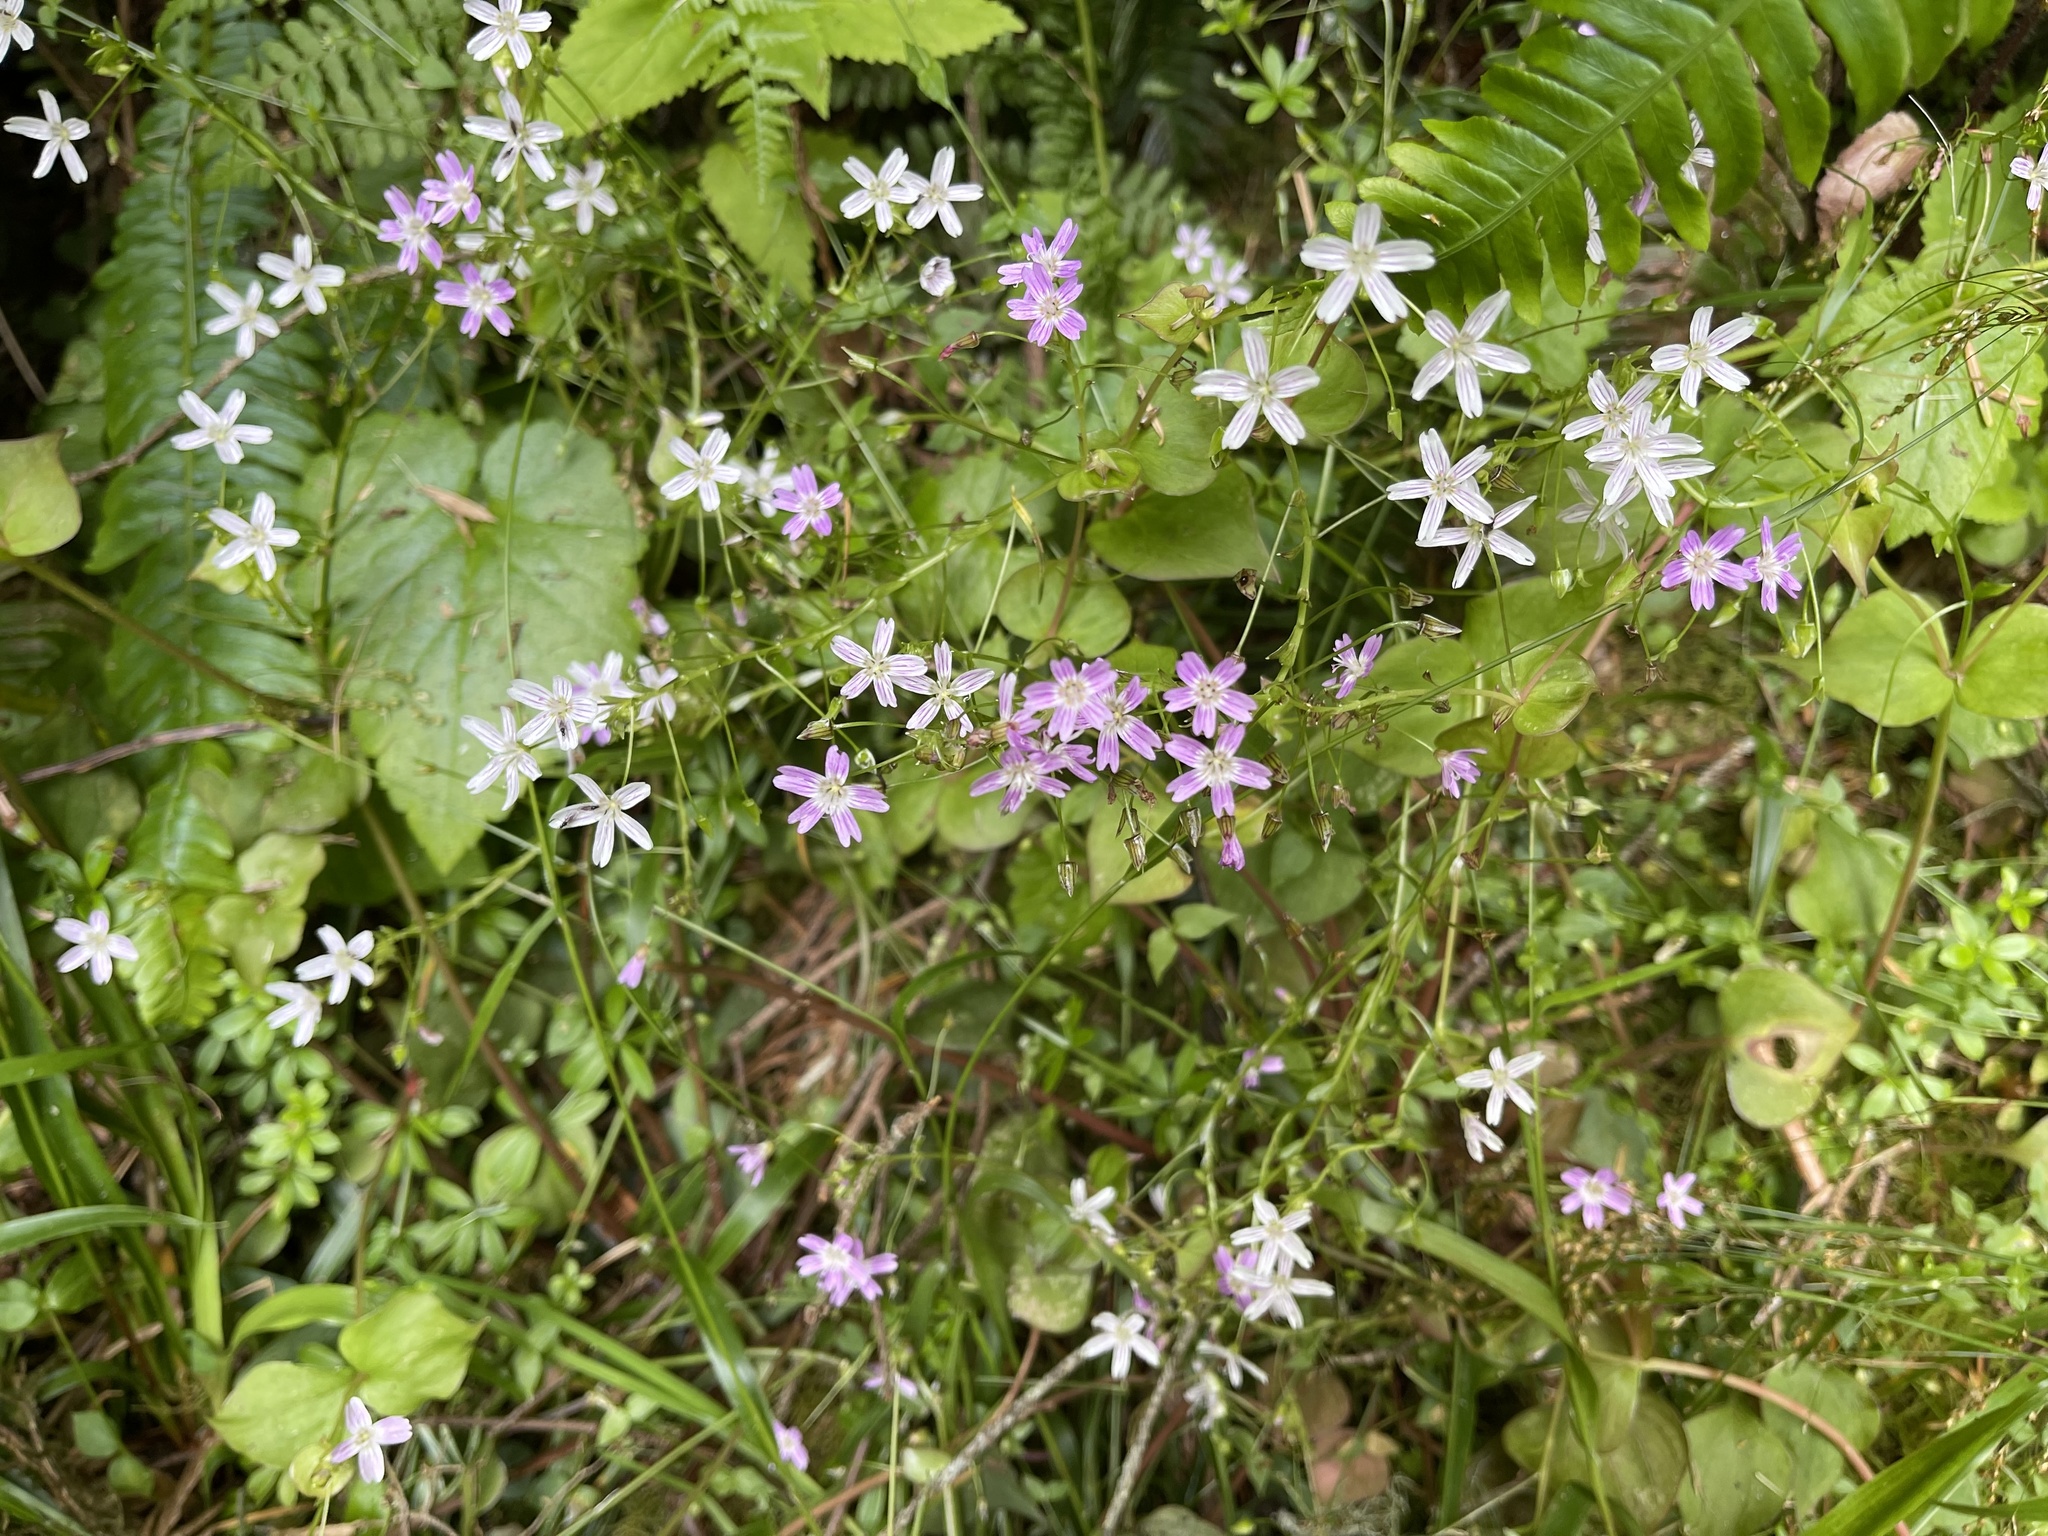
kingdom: Plantae
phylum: Tracheophyta
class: Magnoliopsida
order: Caryophyllales
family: Montiaceae
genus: Claytonia
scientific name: Claytonia sibirica
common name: Pink purslane
